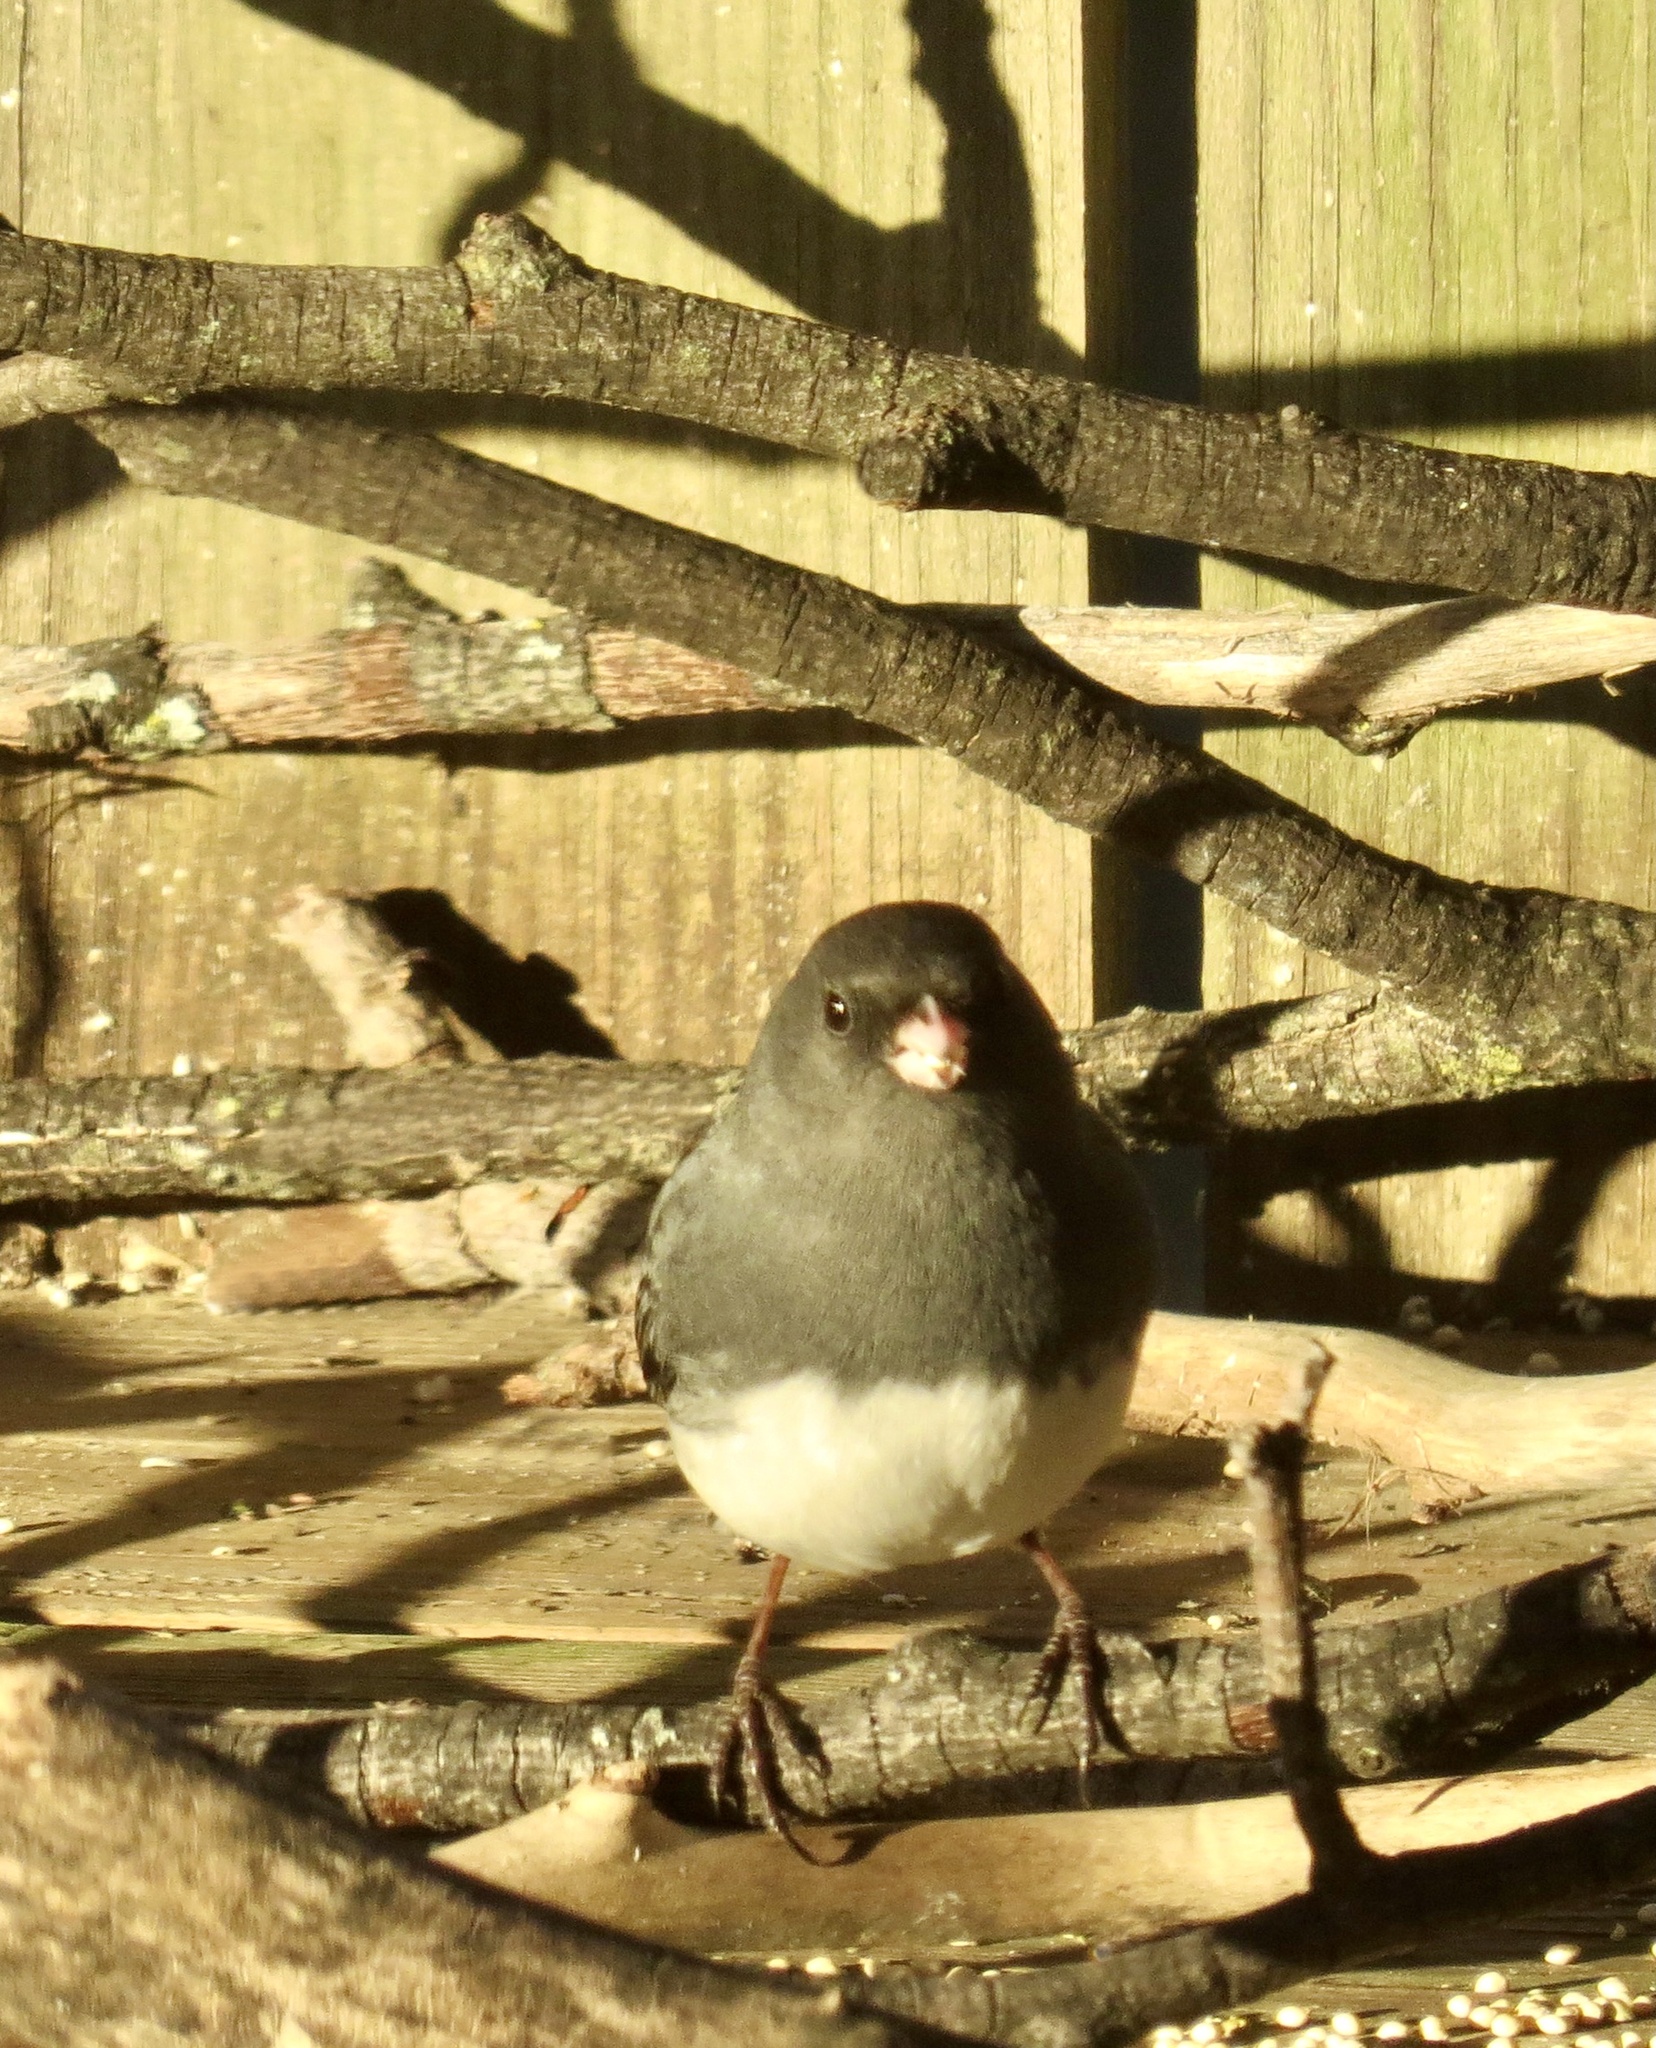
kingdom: Animalia
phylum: Chordata
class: Aves
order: Passeriformes
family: Passerellidae
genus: Junco
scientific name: Junco hyemalis
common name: Dark-eyed junco
